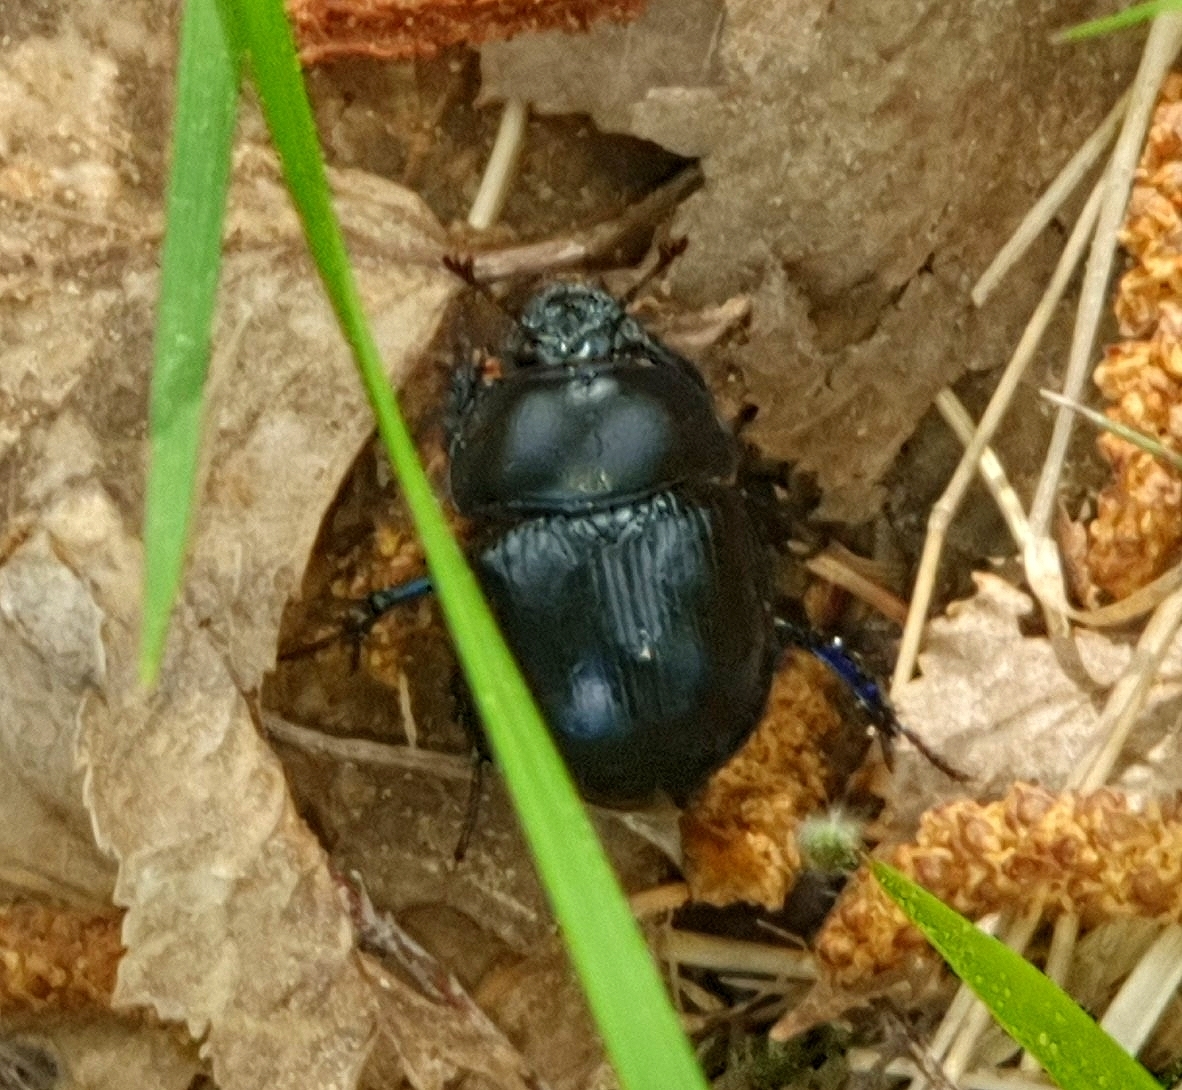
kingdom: Animalia
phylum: Arthropoda
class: Insecta
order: Coleoptera
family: Geotrupidae
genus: Anoplotrupes
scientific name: Anoplotrupes stercorosus
